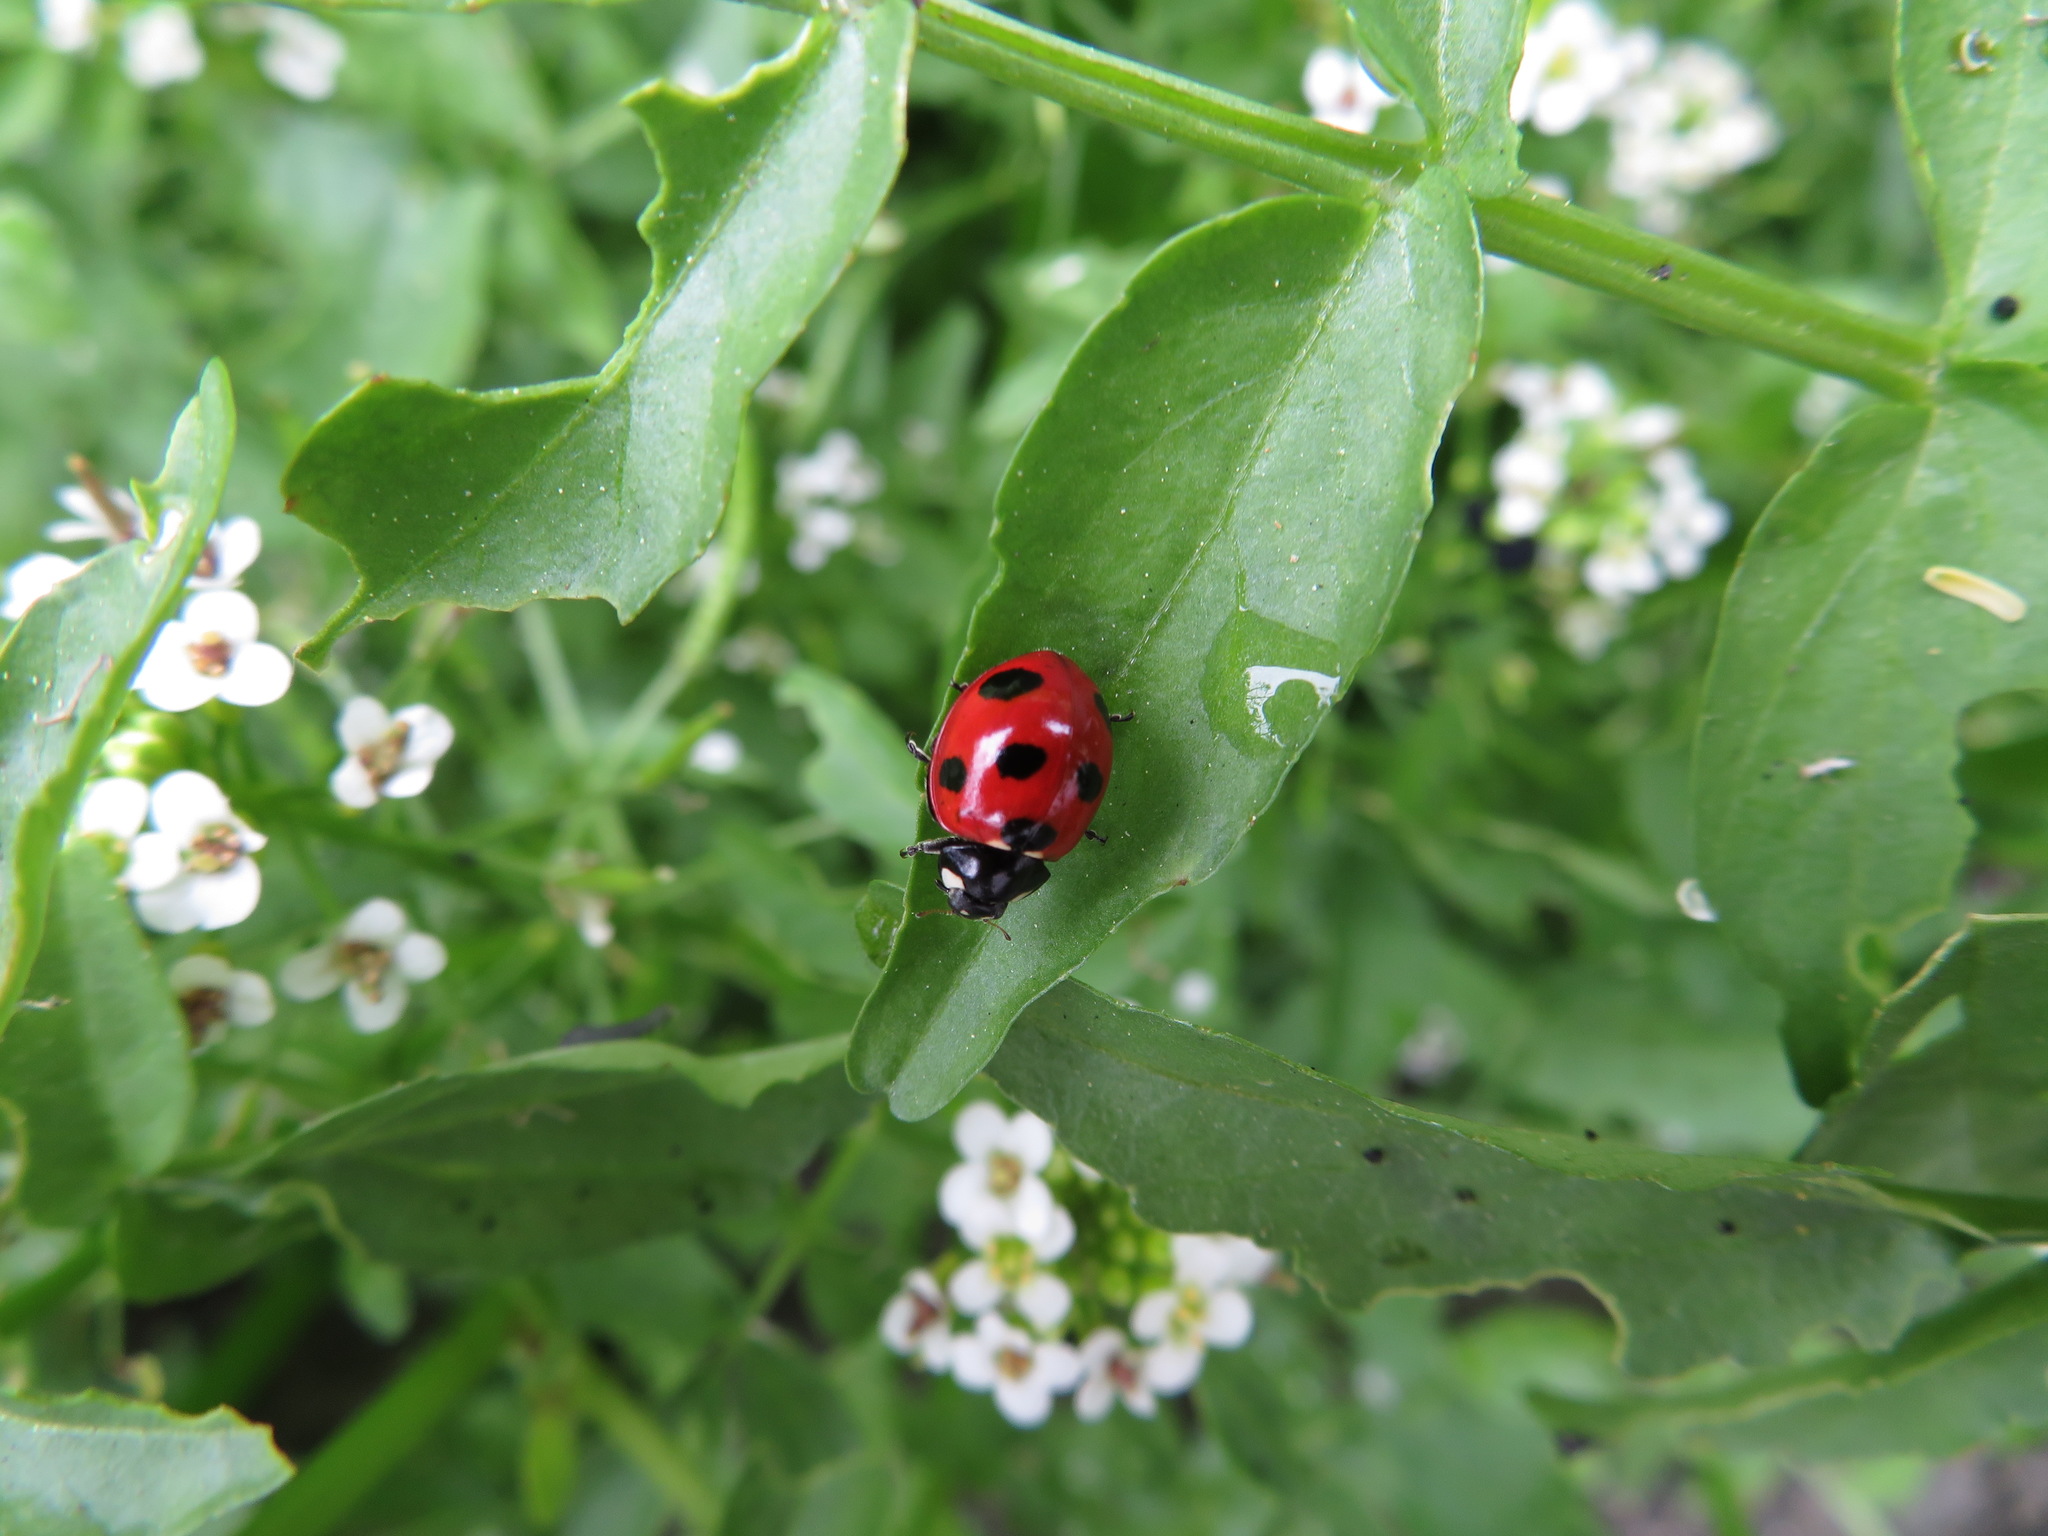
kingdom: Animalia
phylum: Arthropoda
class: Insecta
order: Coleoptera
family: Coccinellidae
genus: Coccinella
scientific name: Coccinella septempunctata
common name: Sevenspotted lady beetle
